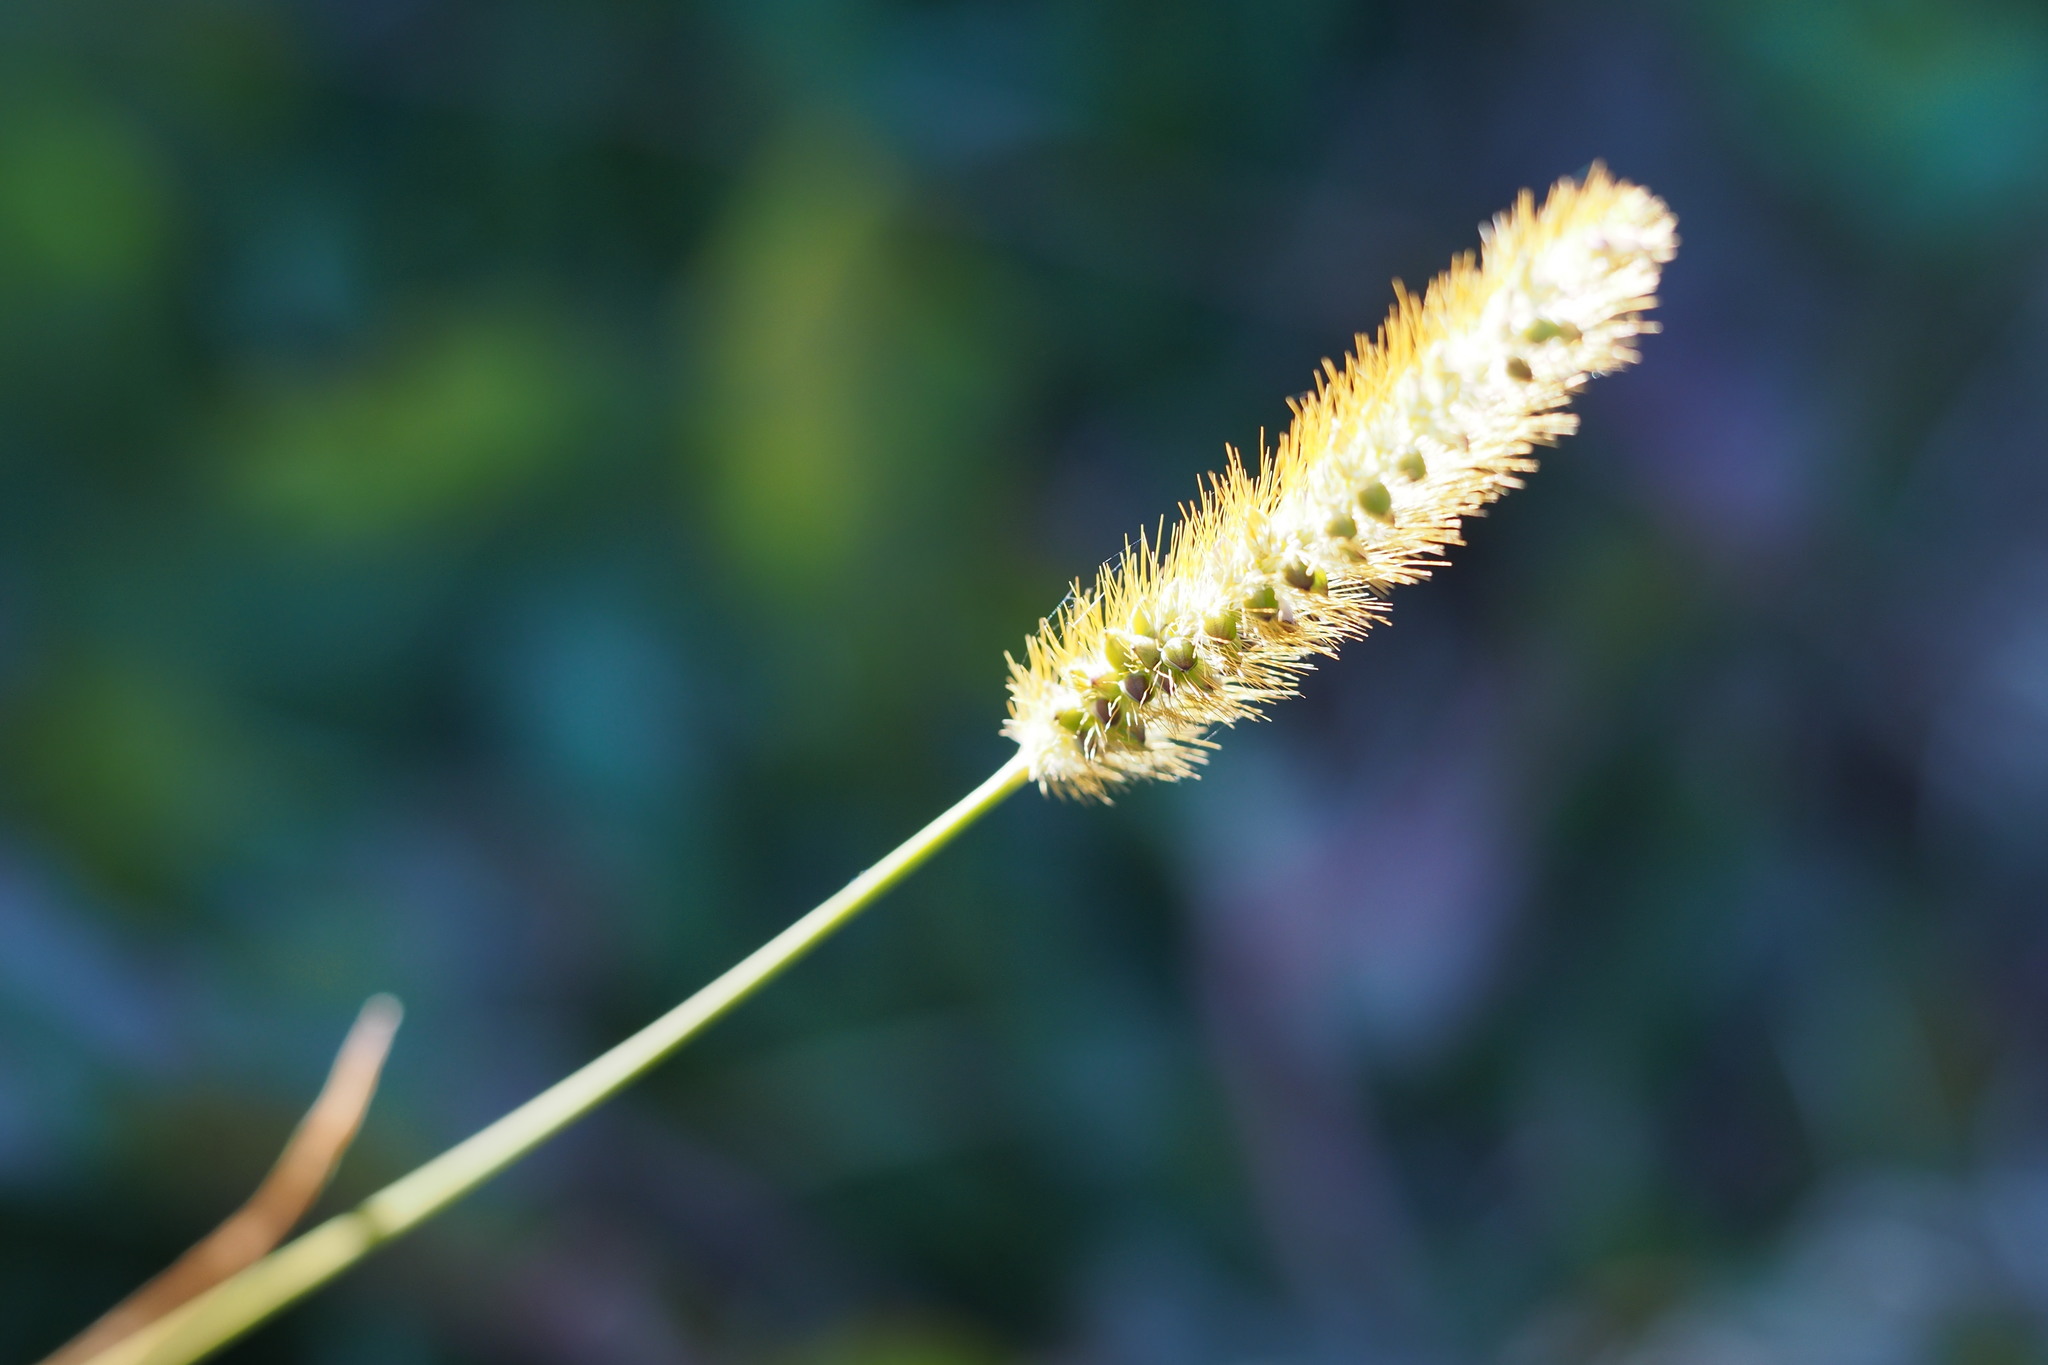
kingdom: Plantae
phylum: Tracheophyta
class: Liliopsida
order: Poales
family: Poaceae
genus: Setaria
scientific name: Setaria pumila
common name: Yellow bristle-grass
